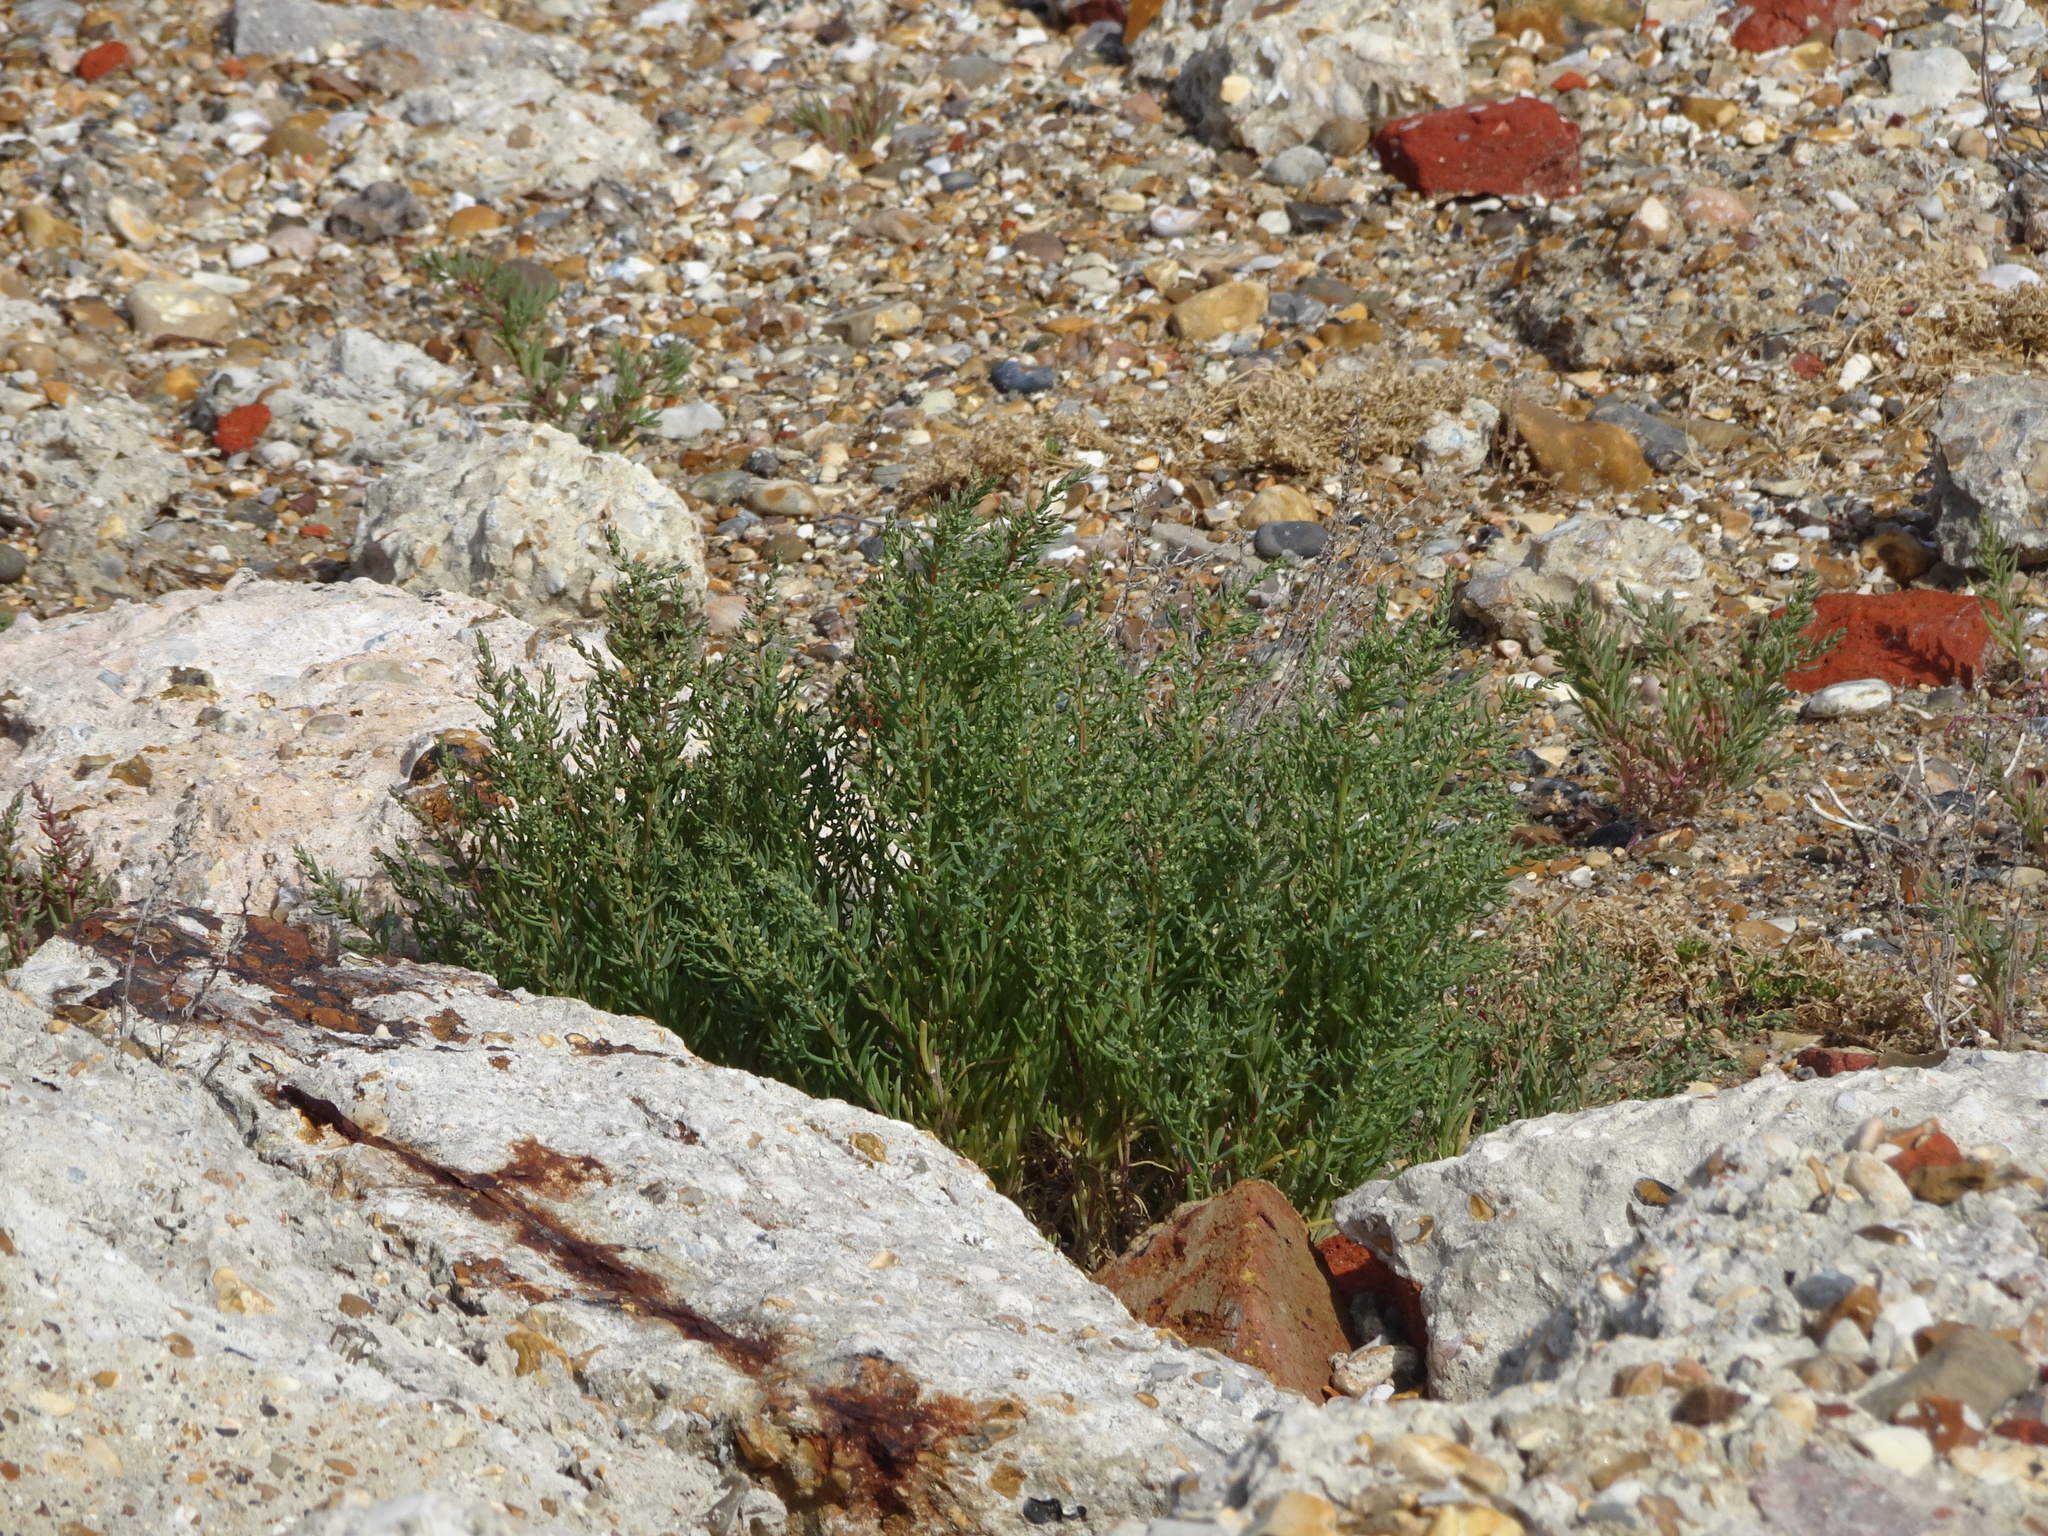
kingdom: Plantae
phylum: Tracheophyta
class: Magnoliopsida
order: Caryophyllales
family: Amaranthaceae
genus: Suaeda
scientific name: Suaeda maritima
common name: Annual sea-blite
